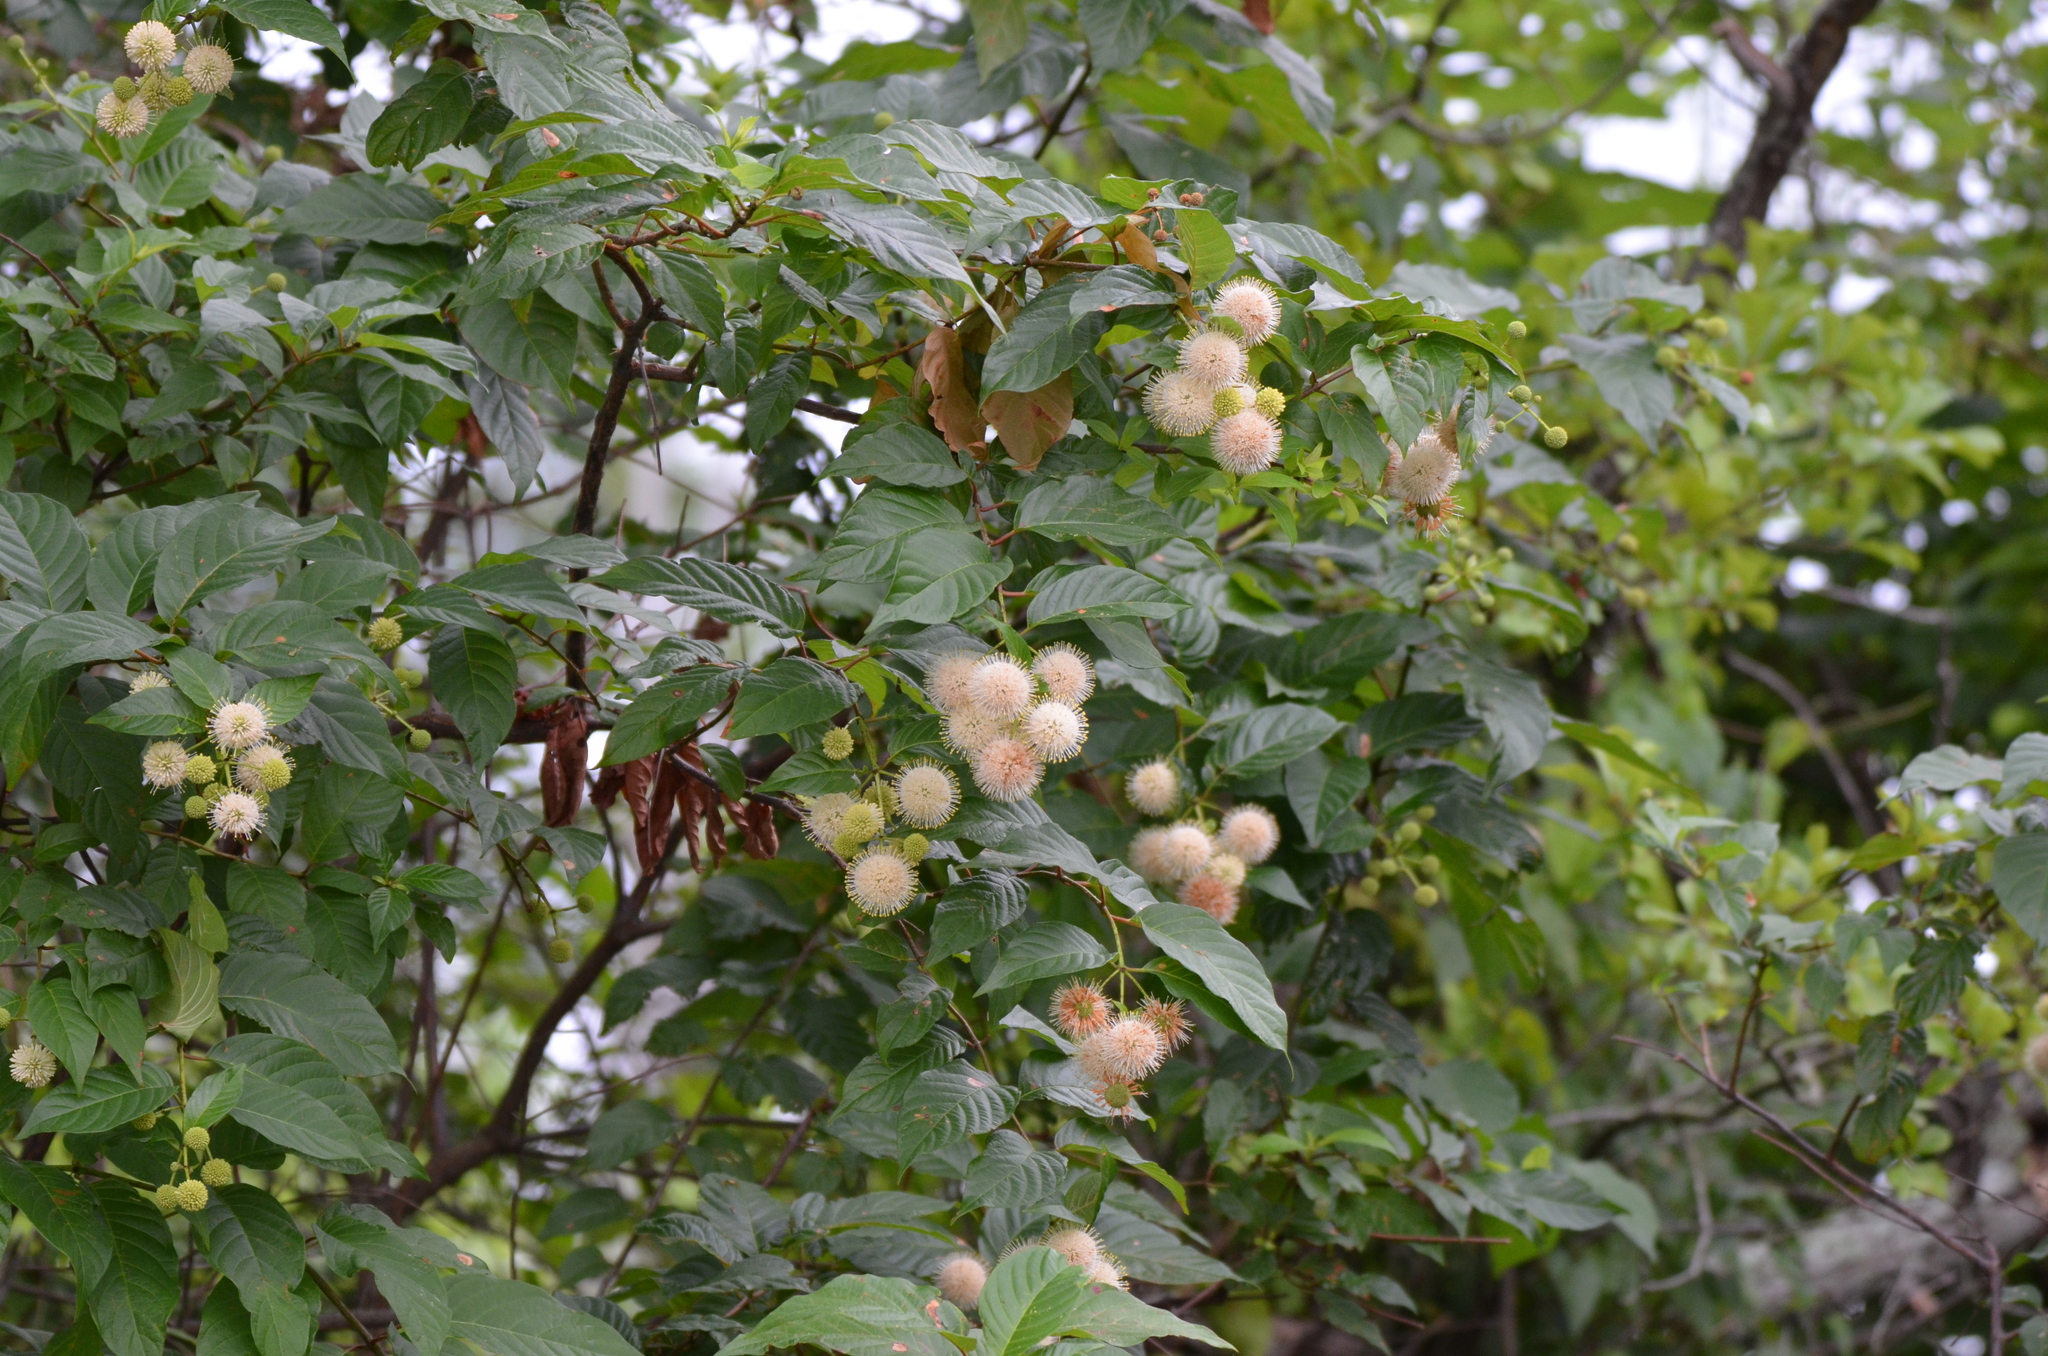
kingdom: Plantae
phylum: Tracheophyta
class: Magnoliopsida
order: Gentianales
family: Rubiaceae
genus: Cephalanthus
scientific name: Cephalanthus occidentalis
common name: Button-willow
